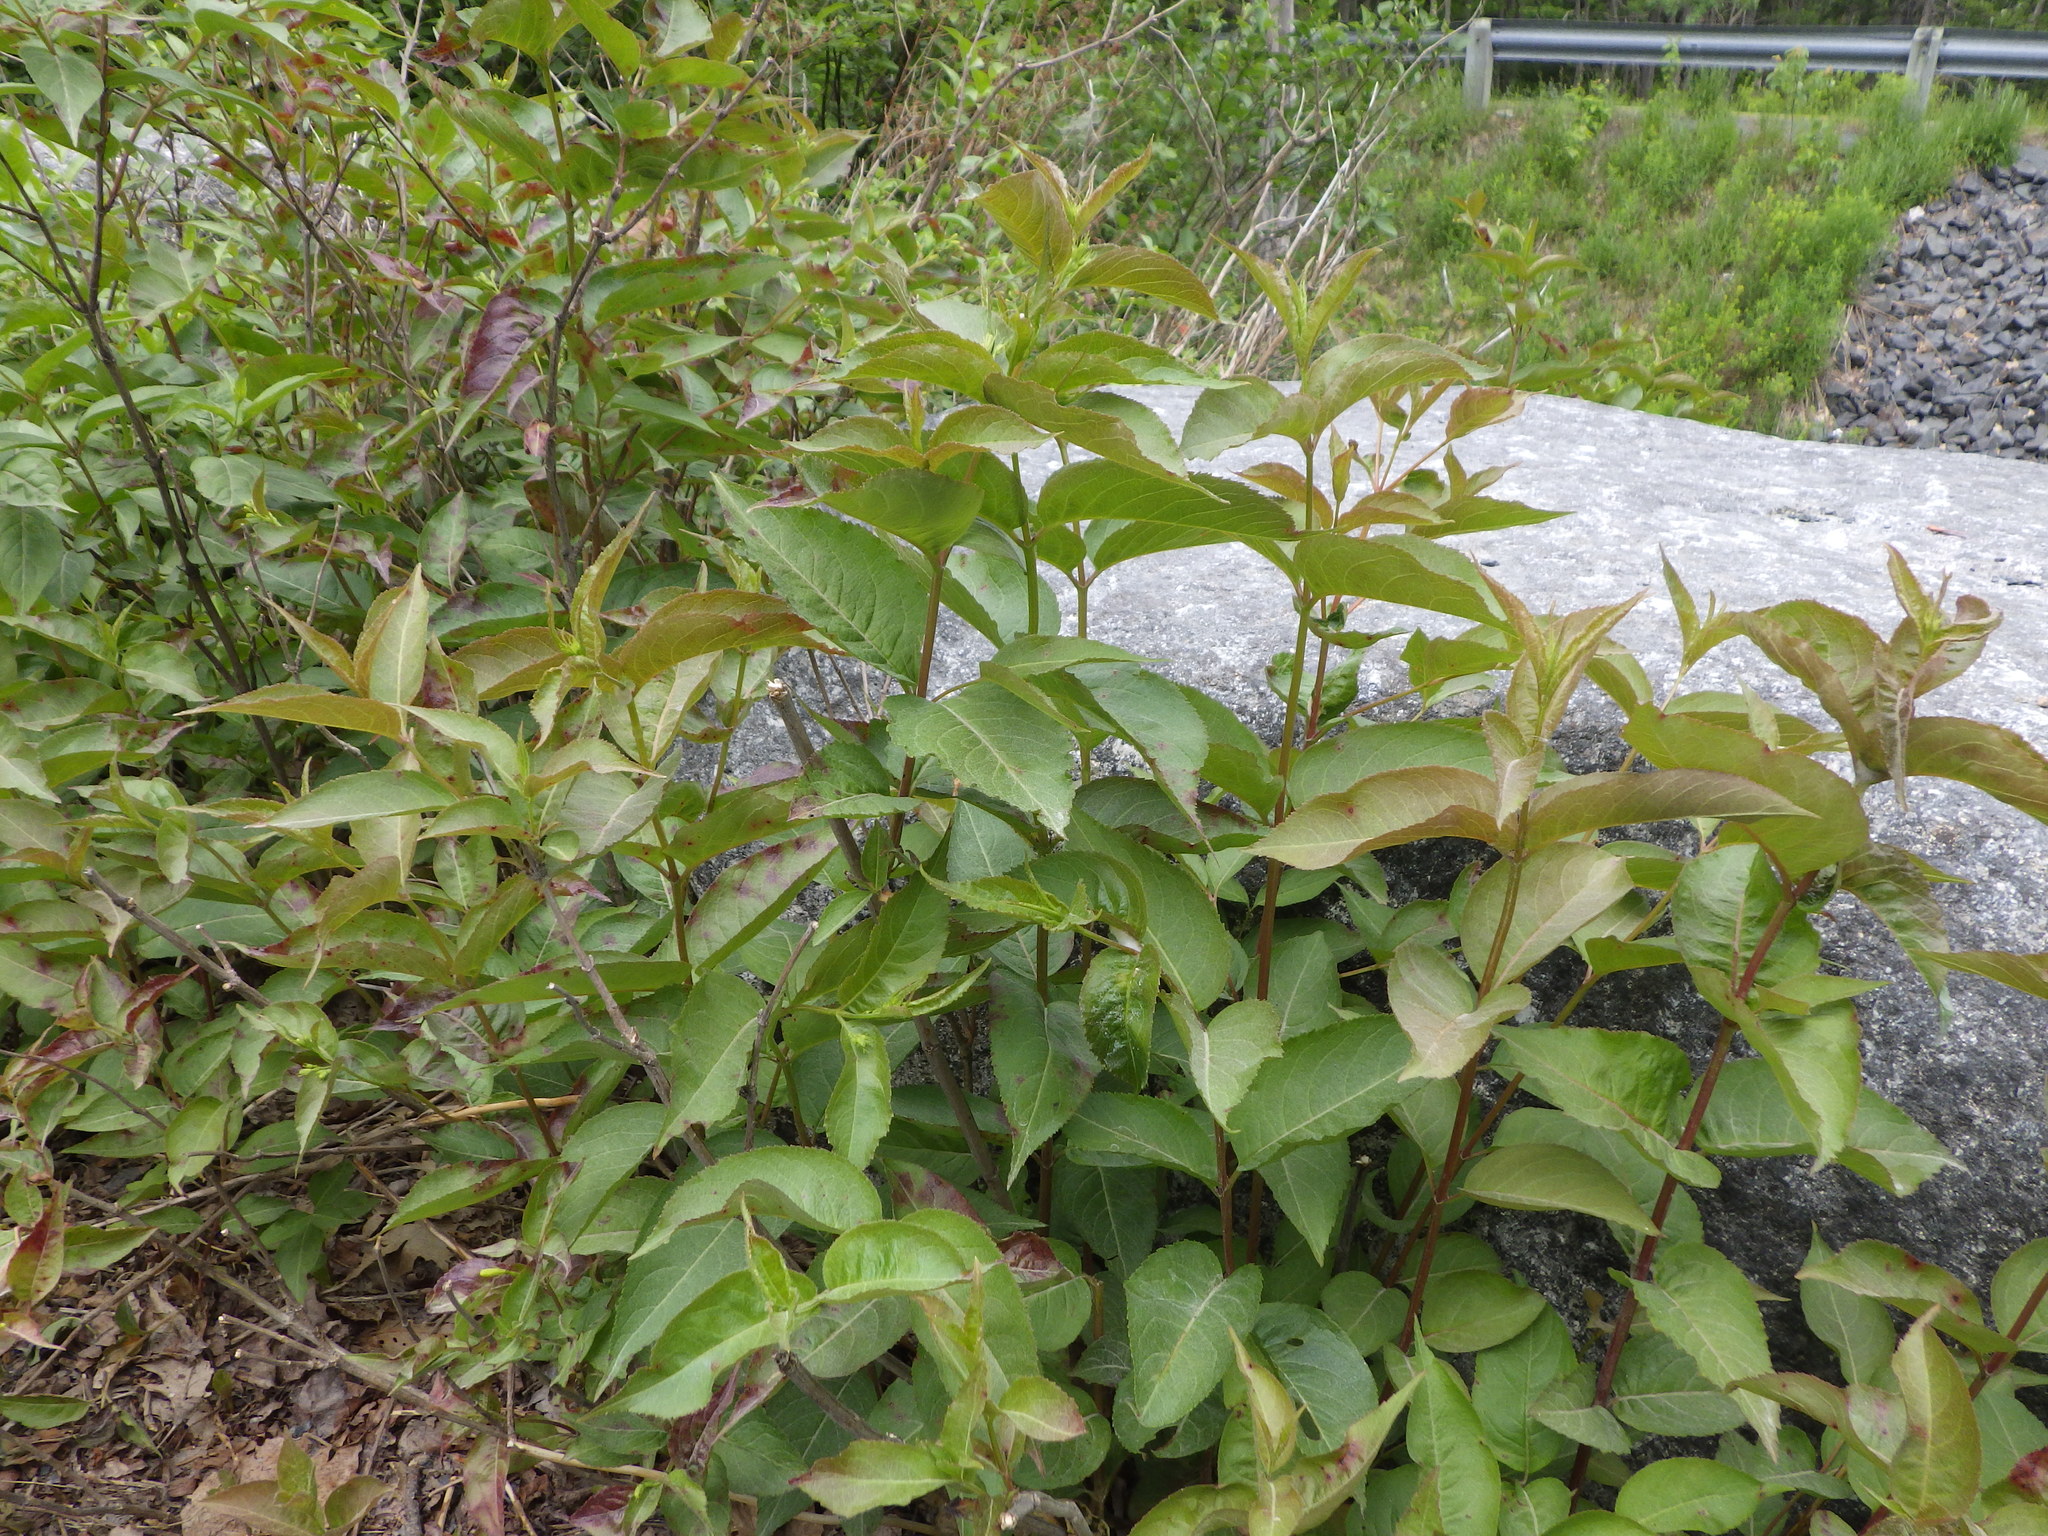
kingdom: Plantae
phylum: Tracheophyta
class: Magnoliopsida
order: Dipsacales
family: Caprifoliaceae
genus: Diervilla
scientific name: Diervilla lonicera
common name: Bush-honeysuckle
